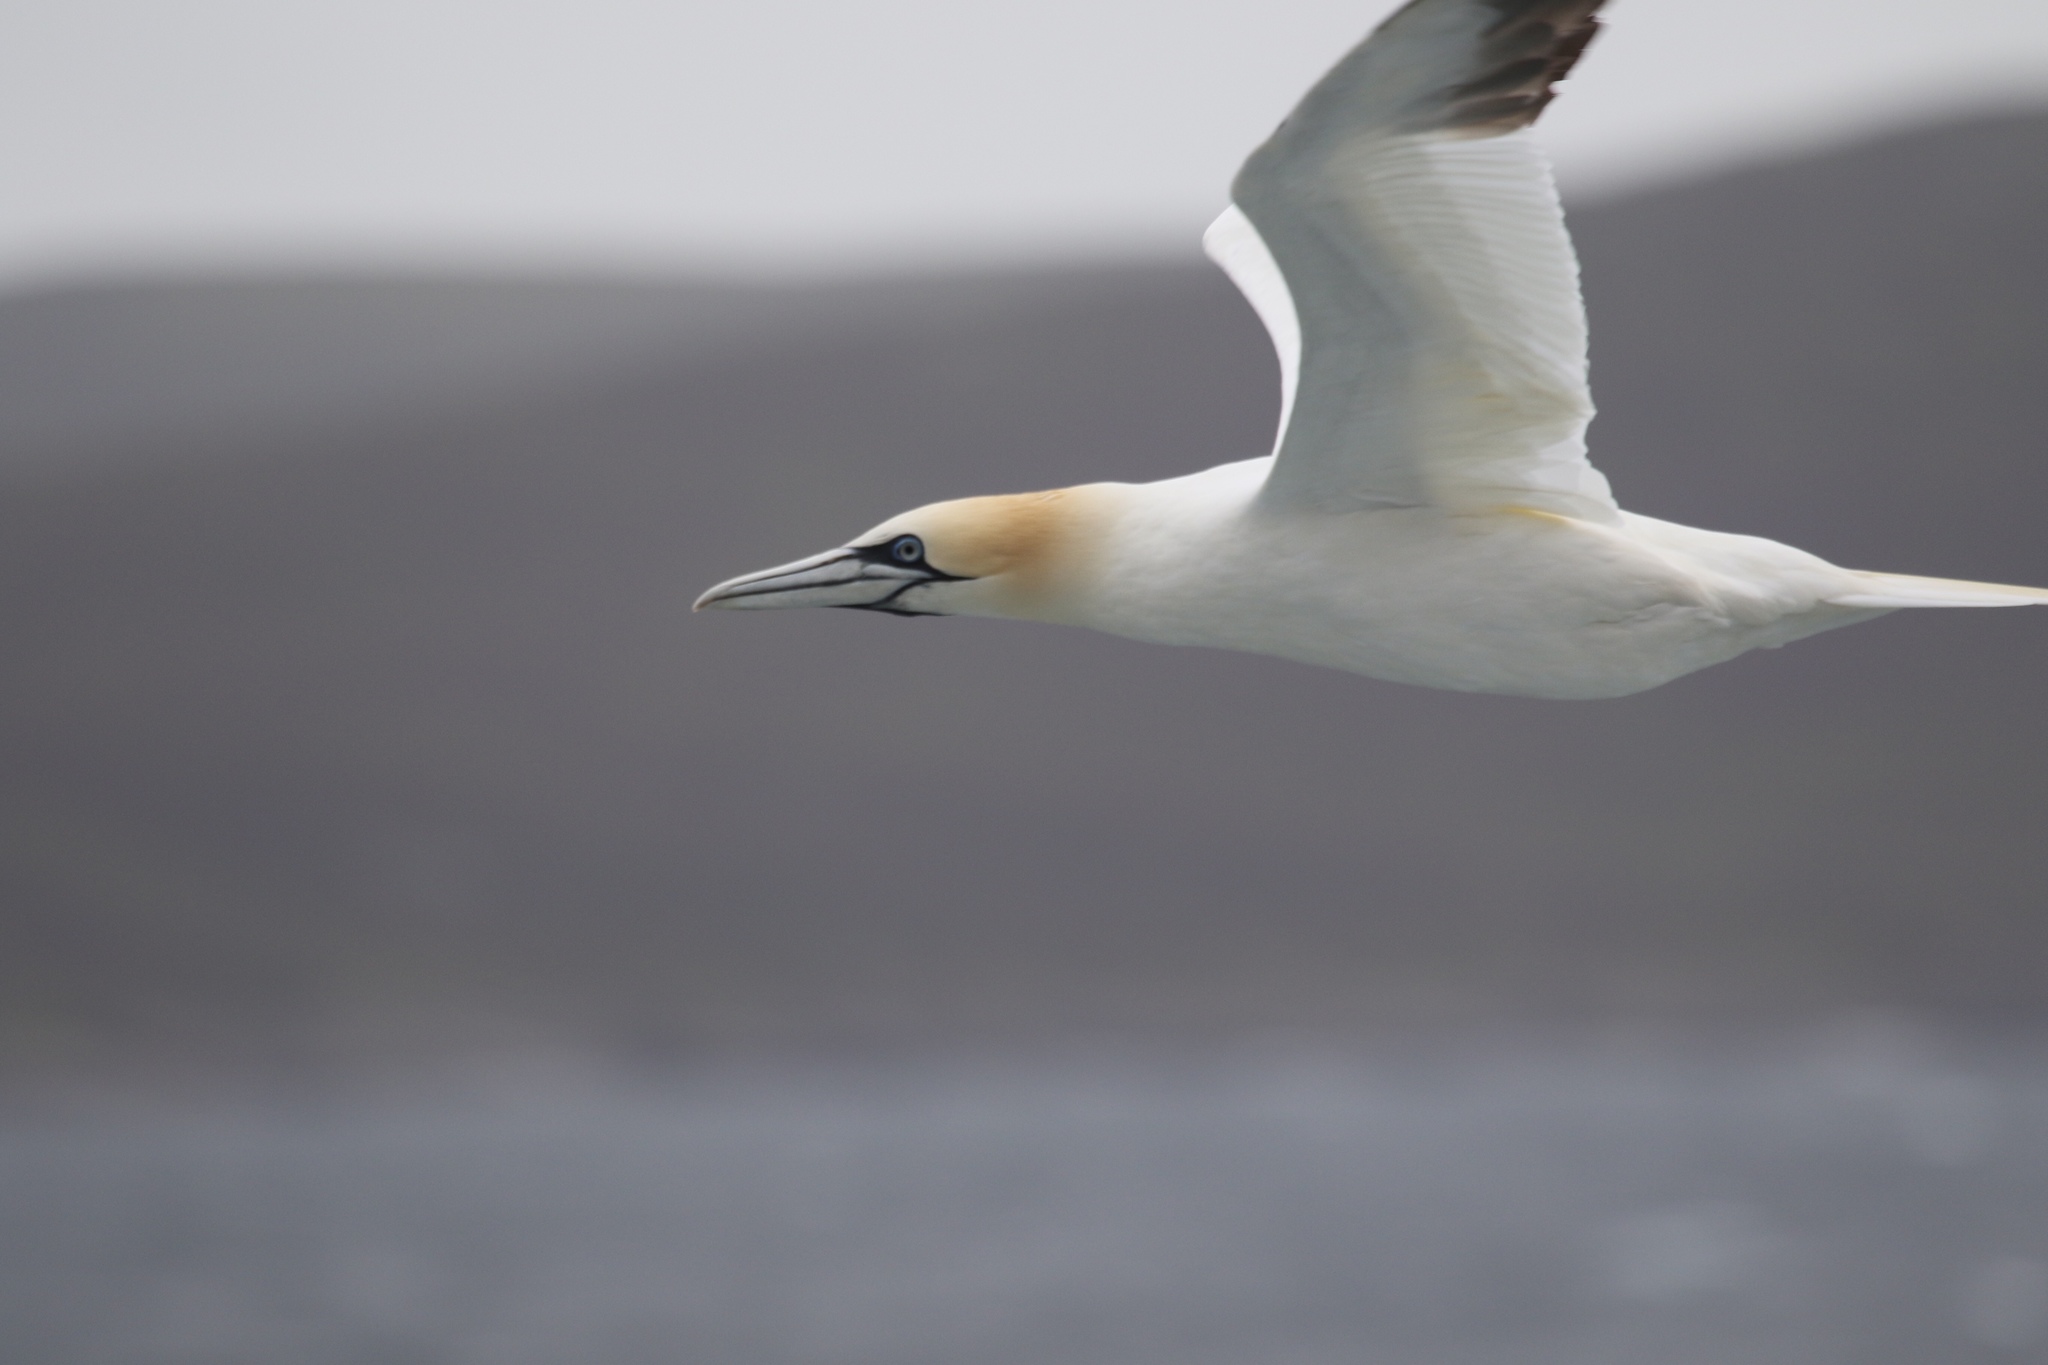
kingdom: Animalia
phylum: Chordata
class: Aves
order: Suliformes
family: Sulidae
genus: Morus
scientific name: Morus bassanus
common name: Northern gannet
